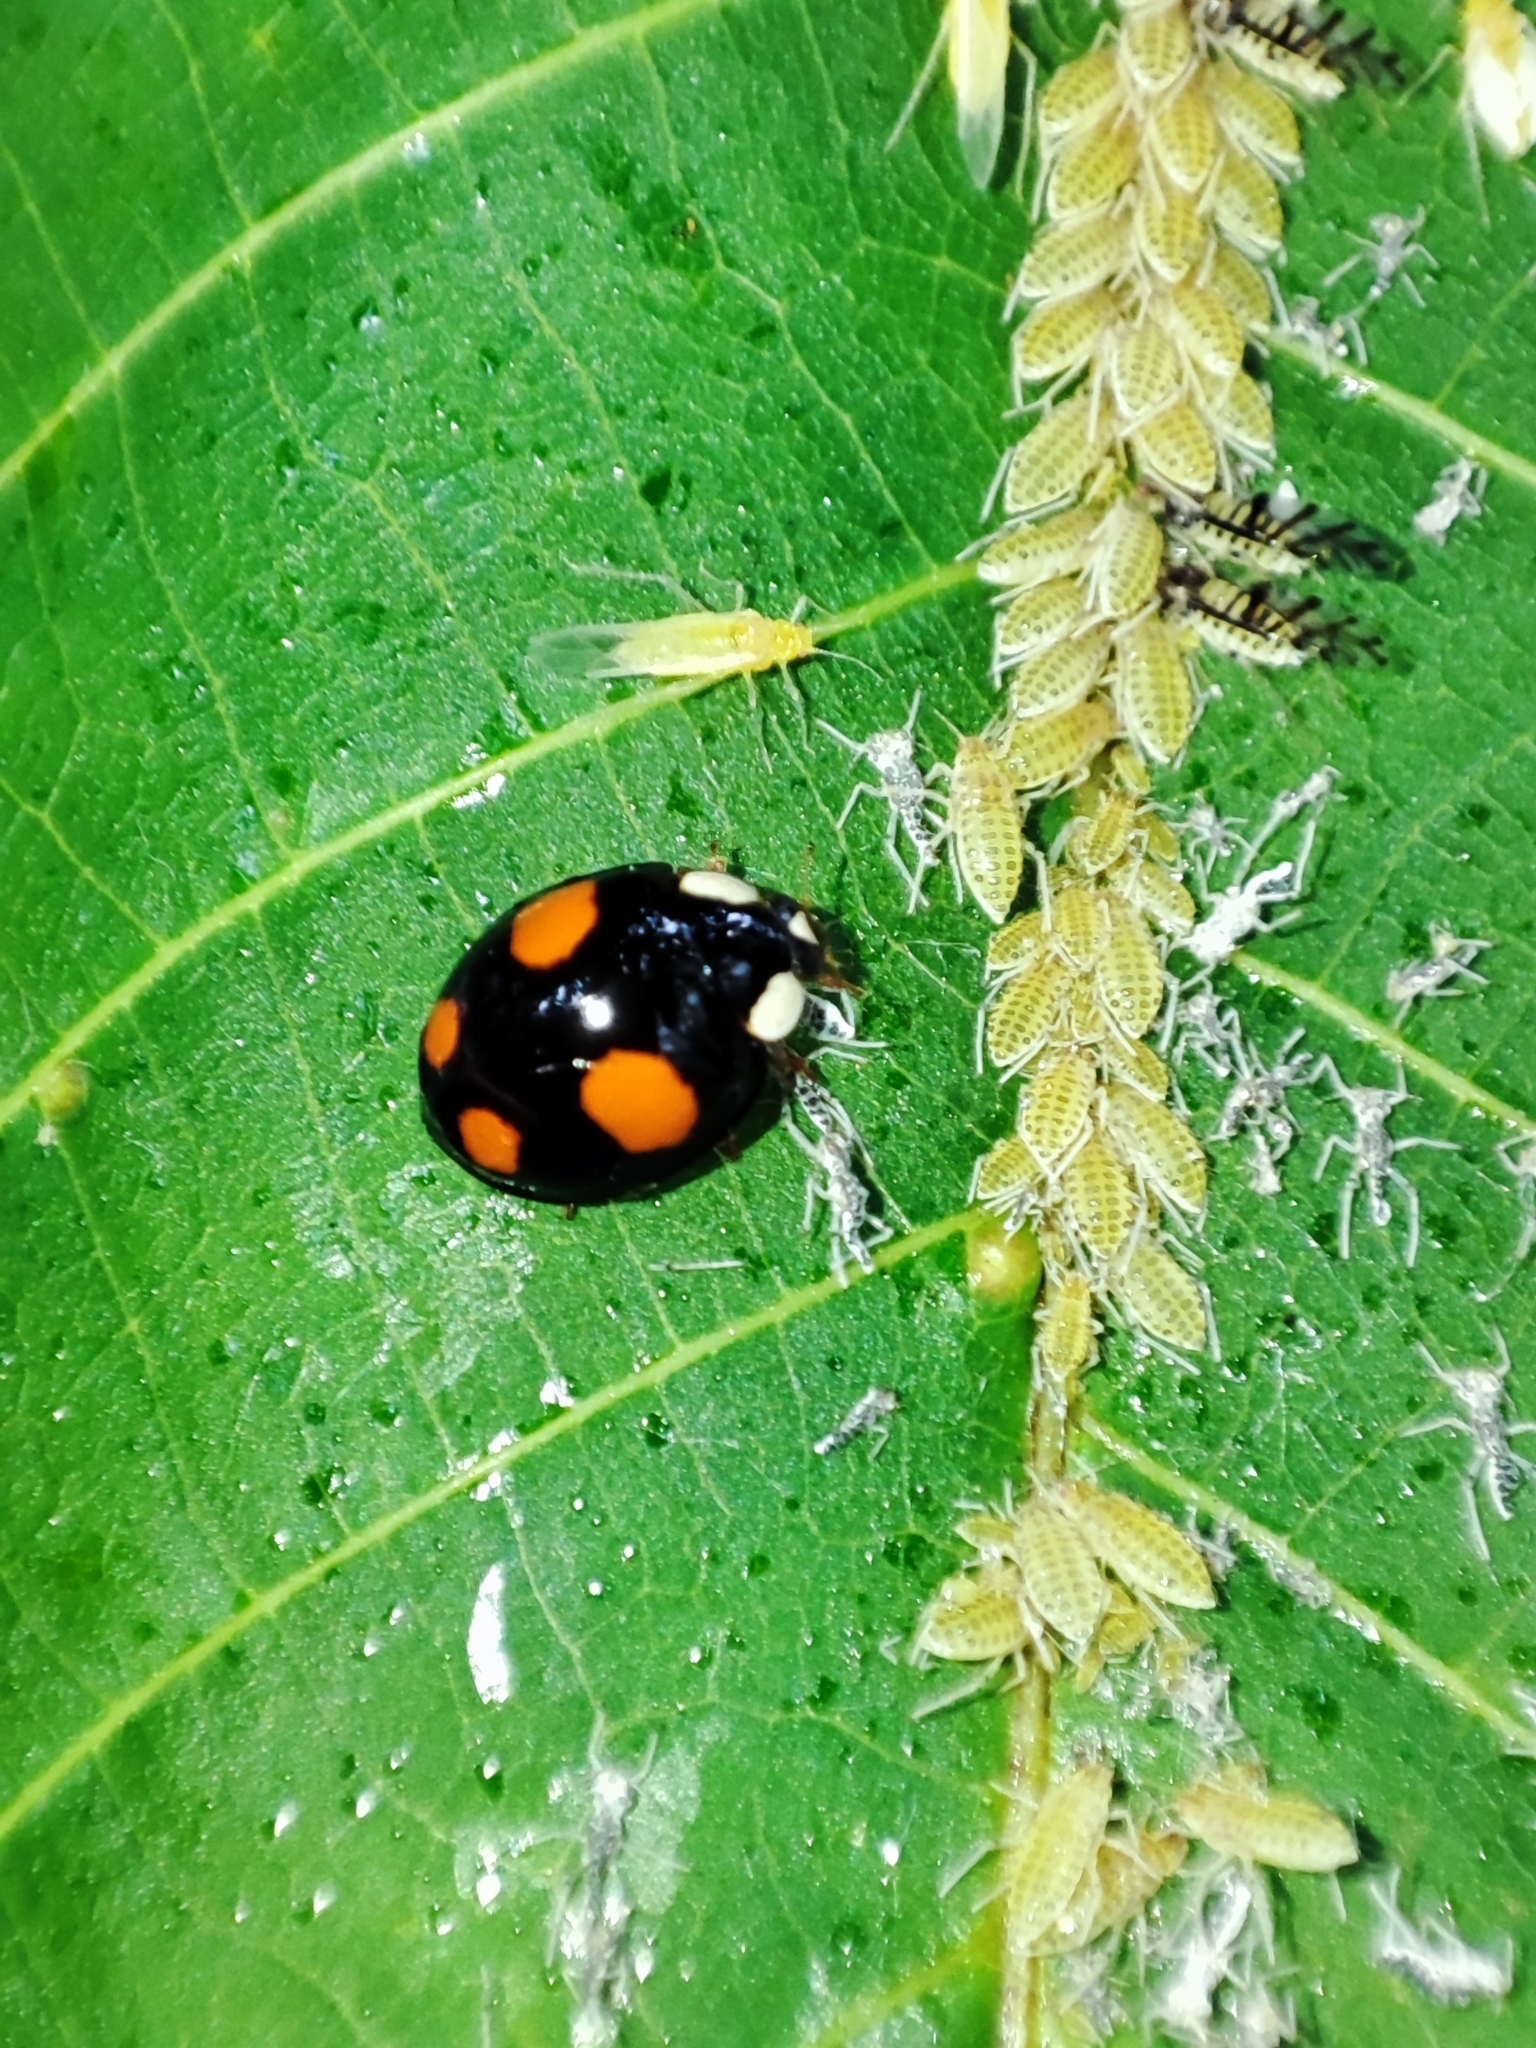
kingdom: Animalia
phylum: Arthropoda
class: Insecta
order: Coleoptera
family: Coccinellidae
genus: Harmonia
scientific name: Harmonia axyridis
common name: Harlequin ladybird
